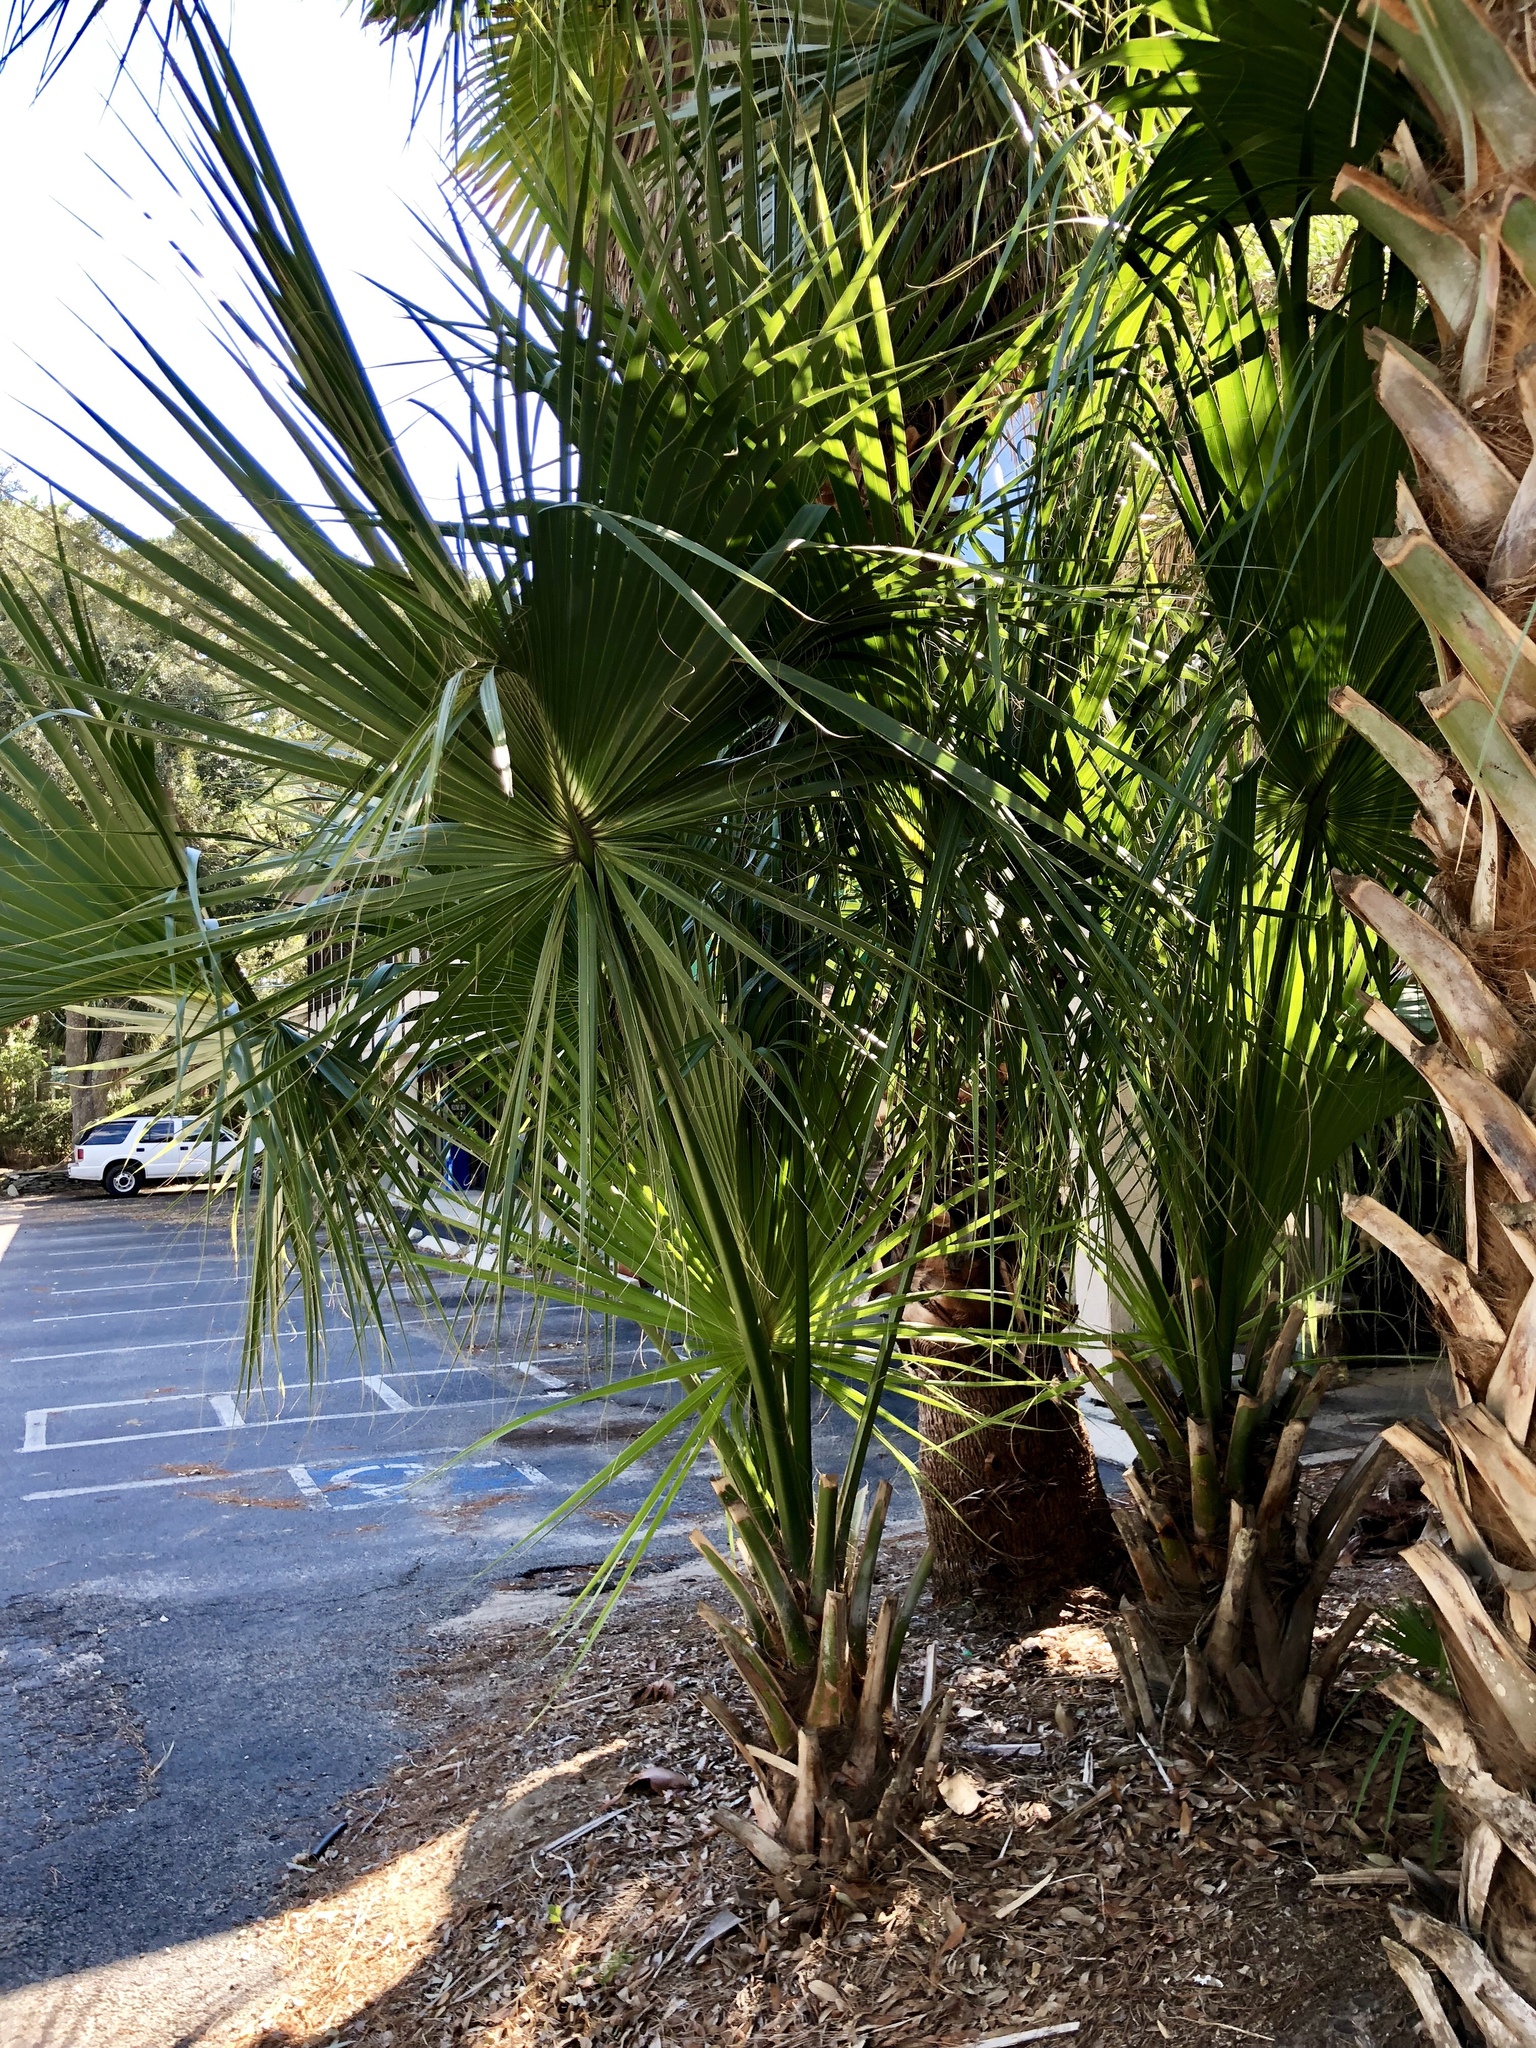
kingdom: Plantae
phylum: Tracheophyta
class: Liliopsida
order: Arecales
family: Arecaceae
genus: Sabal
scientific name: Sabal palmetto
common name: Blue palmetto
